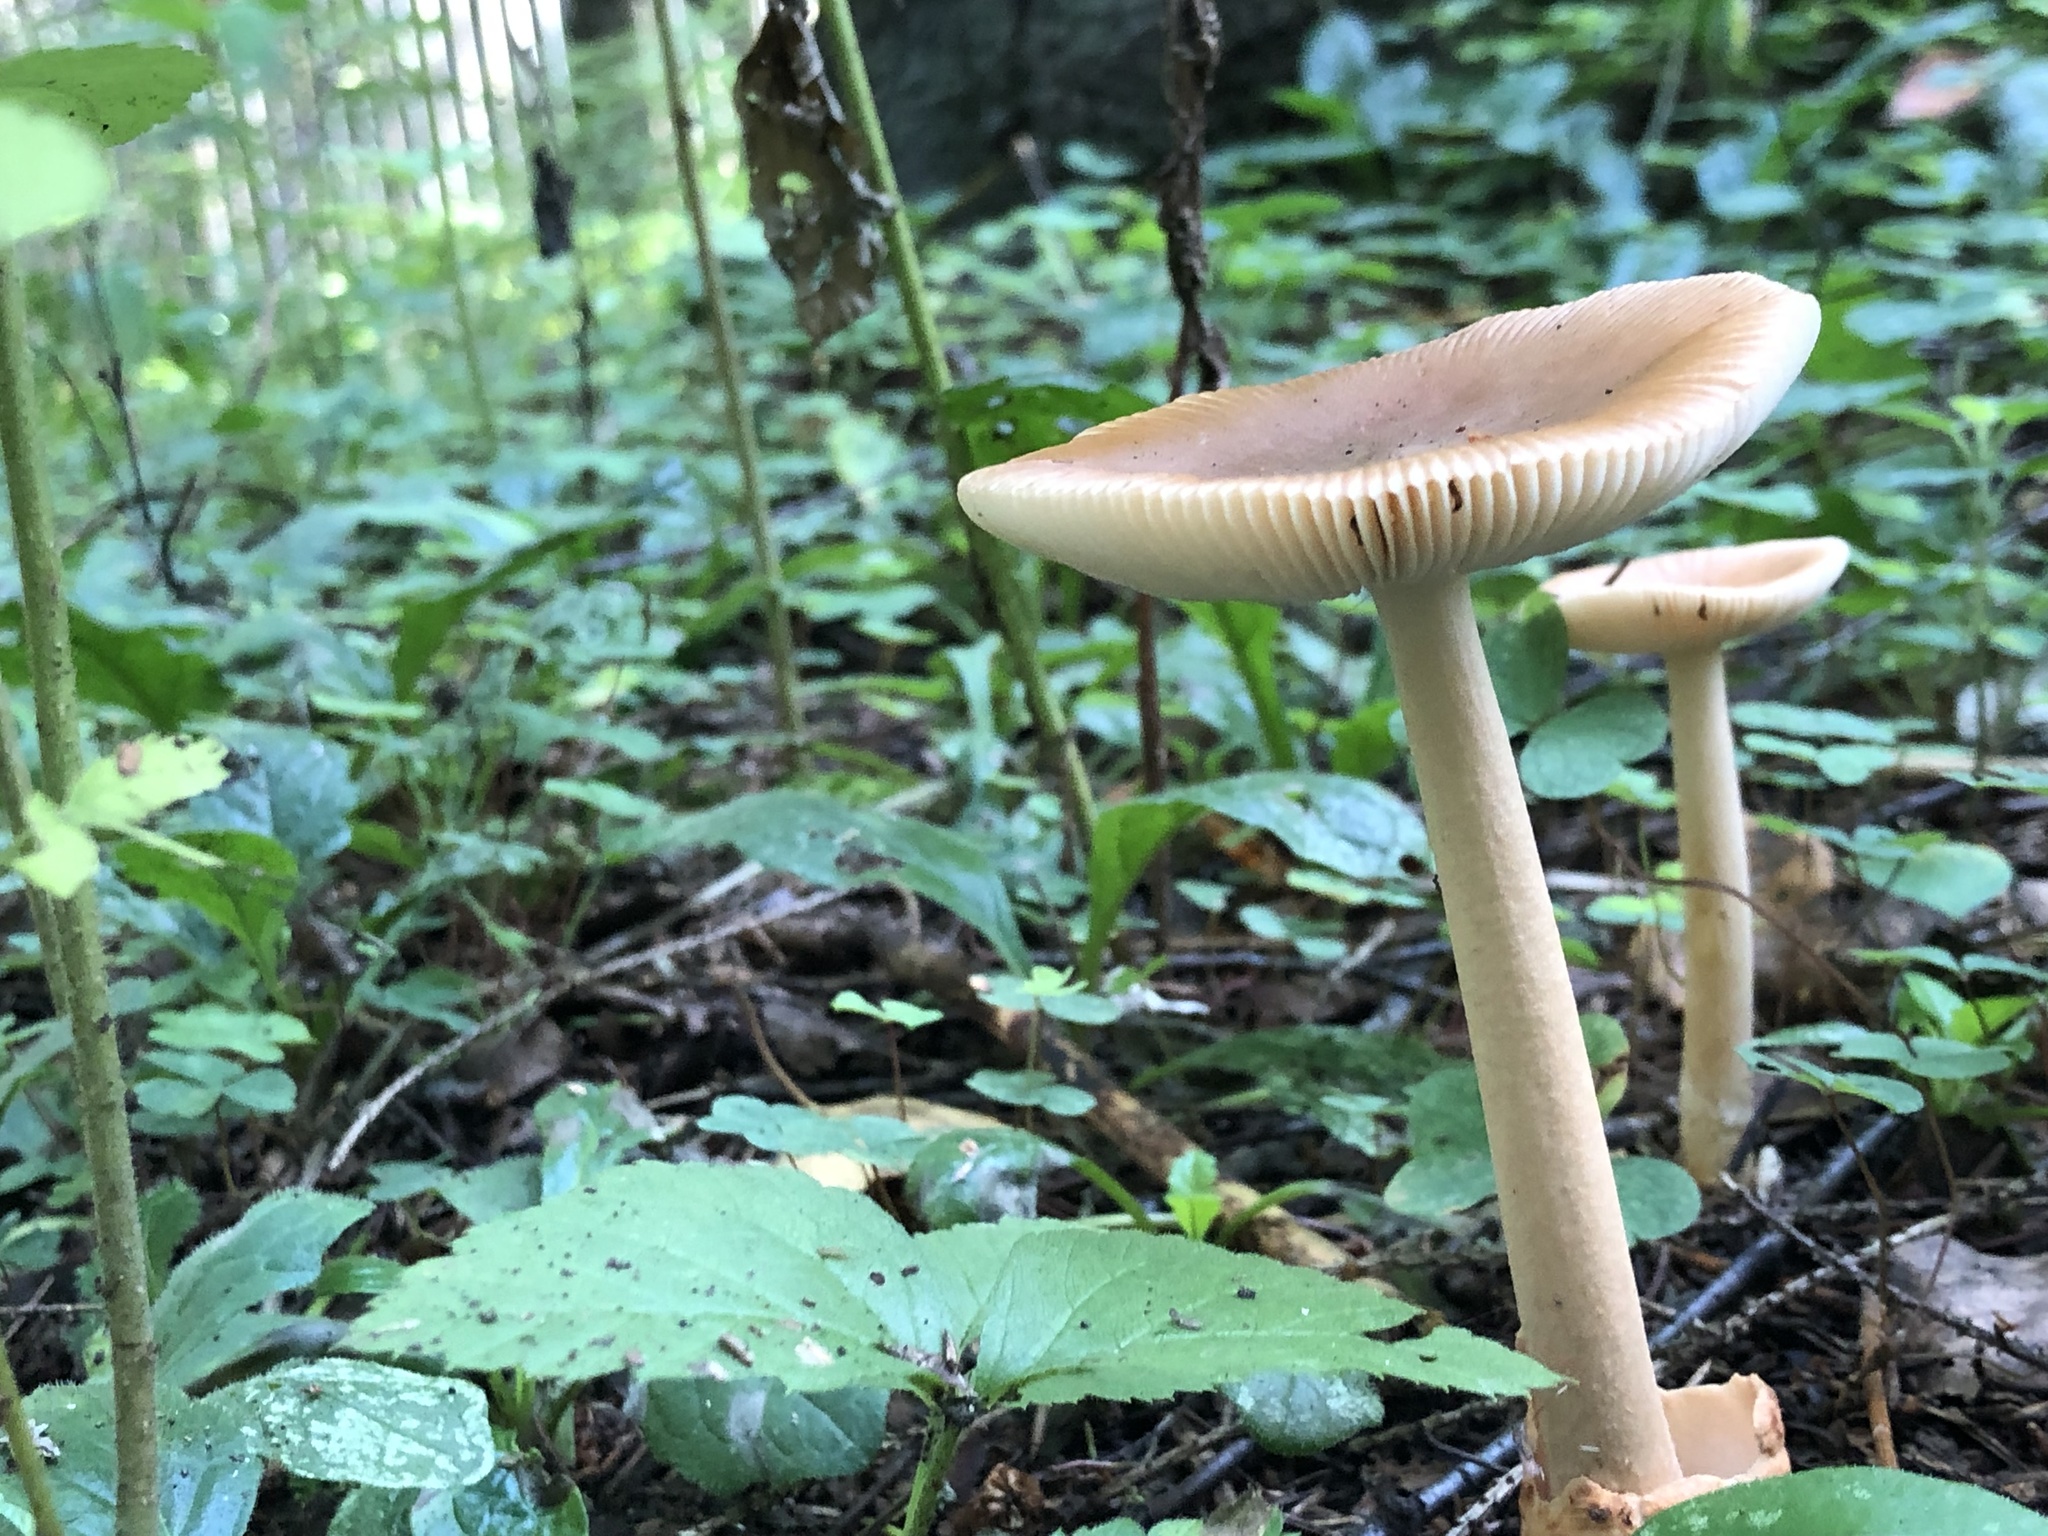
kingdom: Fungi
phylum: Basidiomycota
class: Agaricomycetes
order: Agaricales
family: Amanitaceae
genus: Amanita
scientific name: Amanita fulva
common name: Tawny grisette
